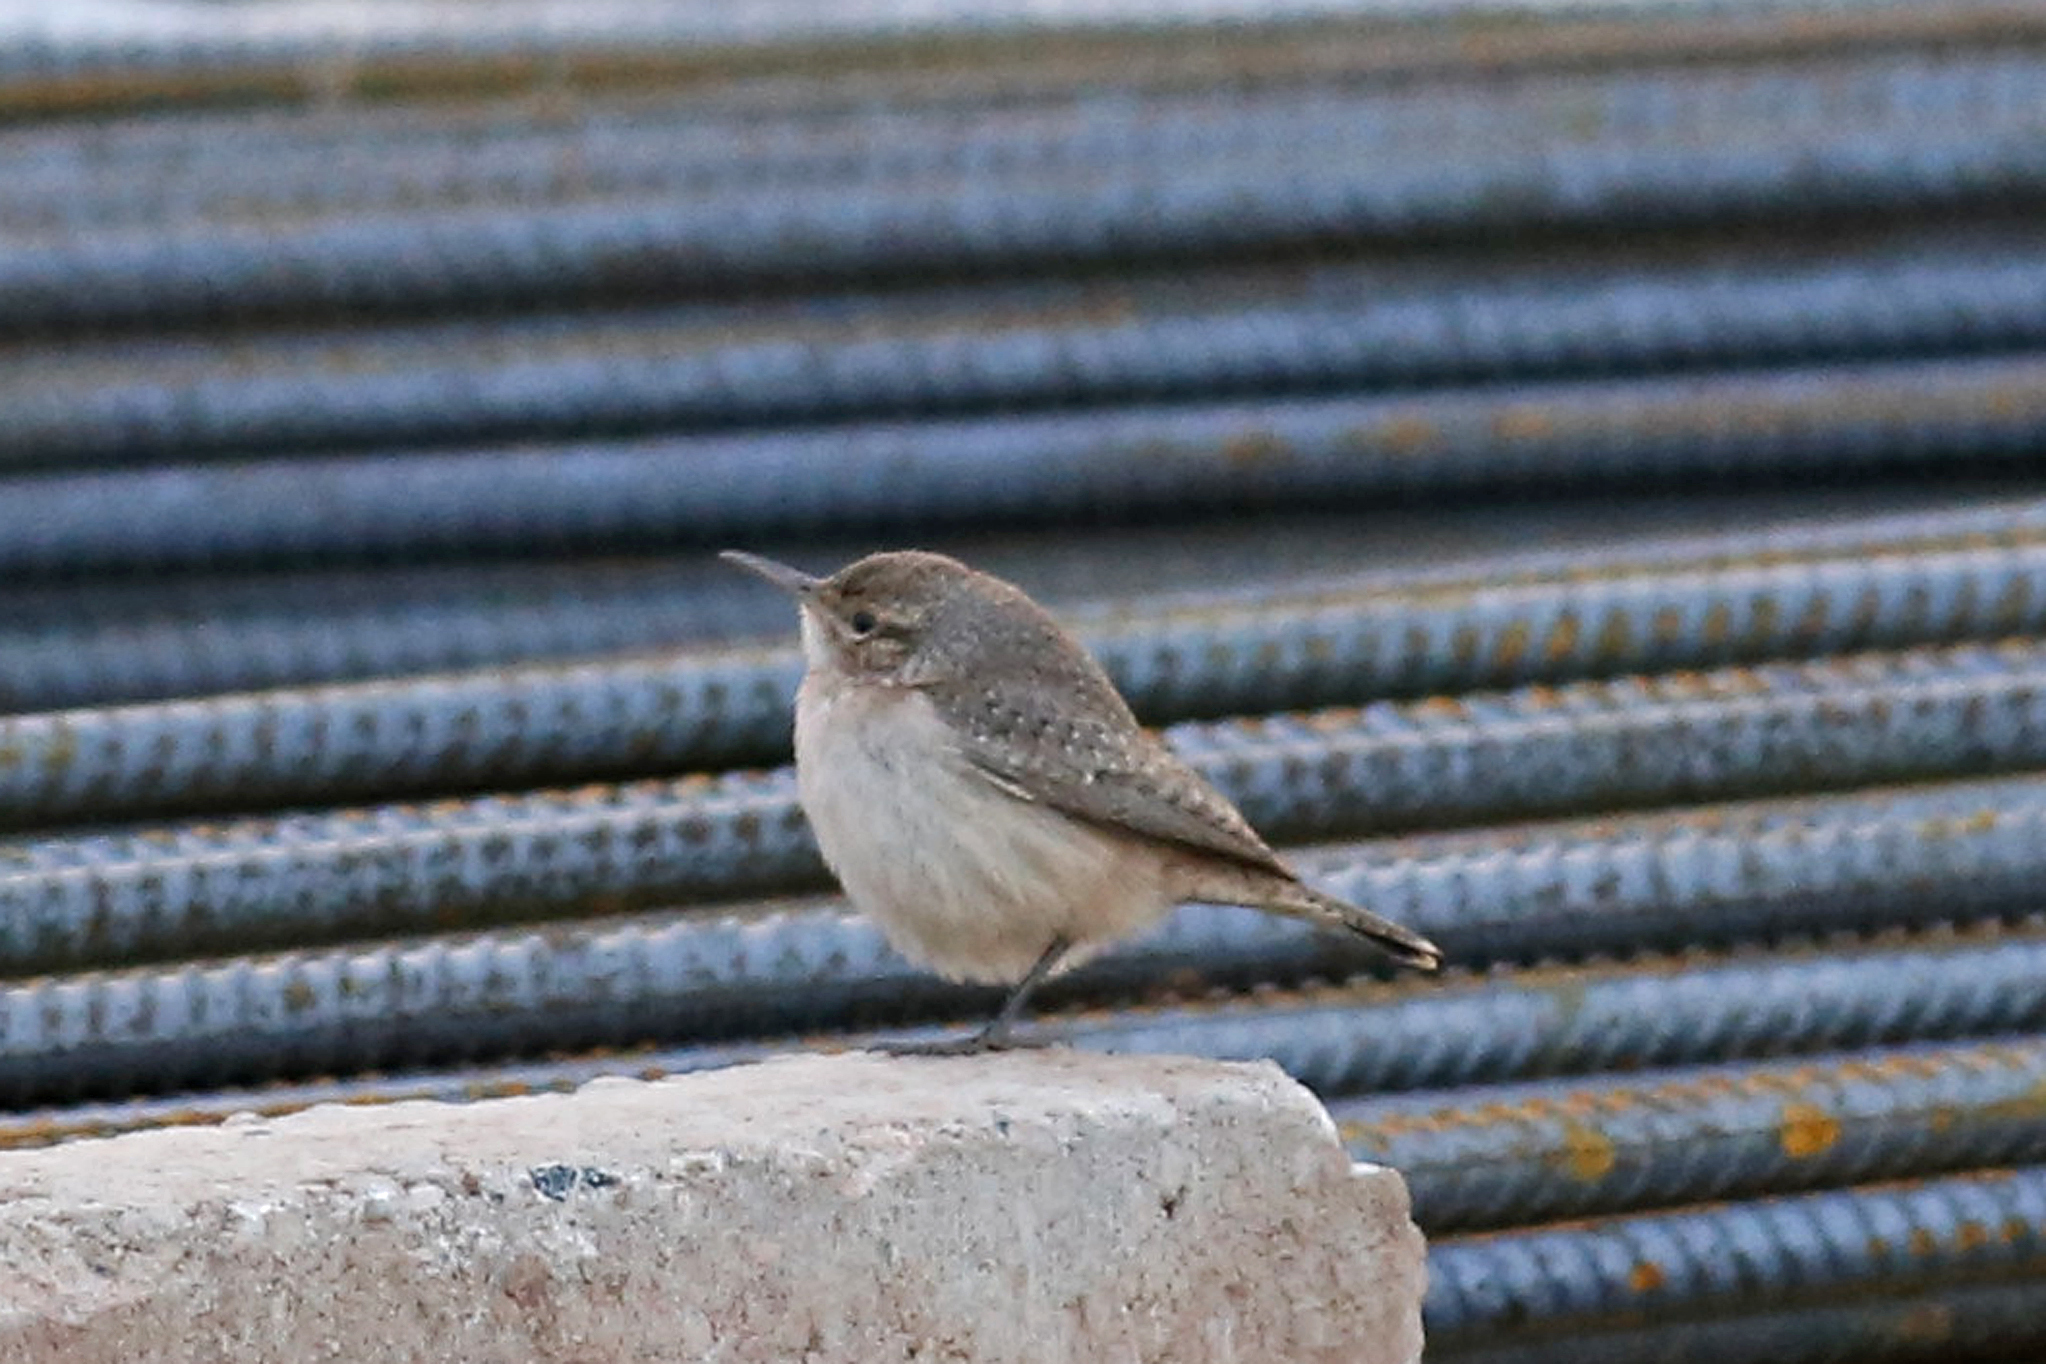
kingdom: Animalia
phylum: Chordata
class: Aves
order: Passeriformes
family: Troglodytidae
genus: Salpinctes
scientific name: Salpinctes obsoletus
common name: Rock wren
